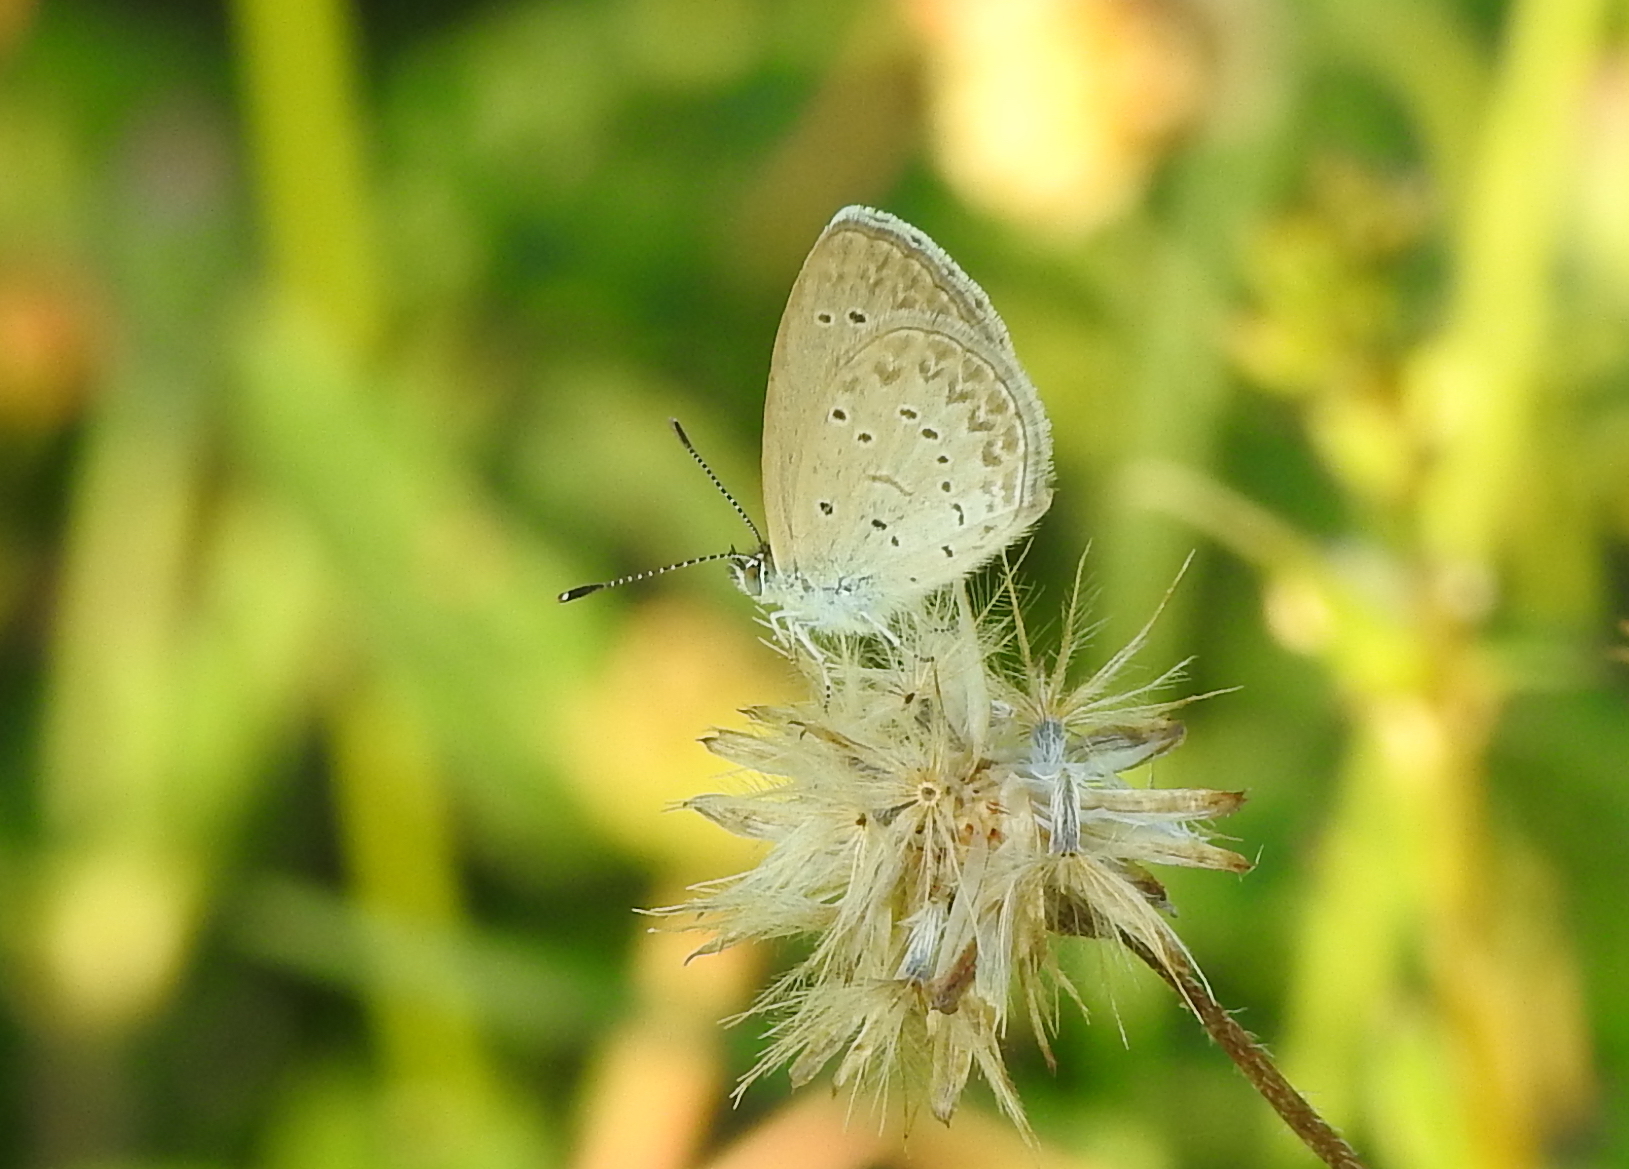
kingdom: Animalia
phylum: Arthropoda
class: Insecta
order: Lepidoptera
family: Lycaenidae
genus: Zizina
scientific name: Zizina otis
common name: Lesser grass blue
